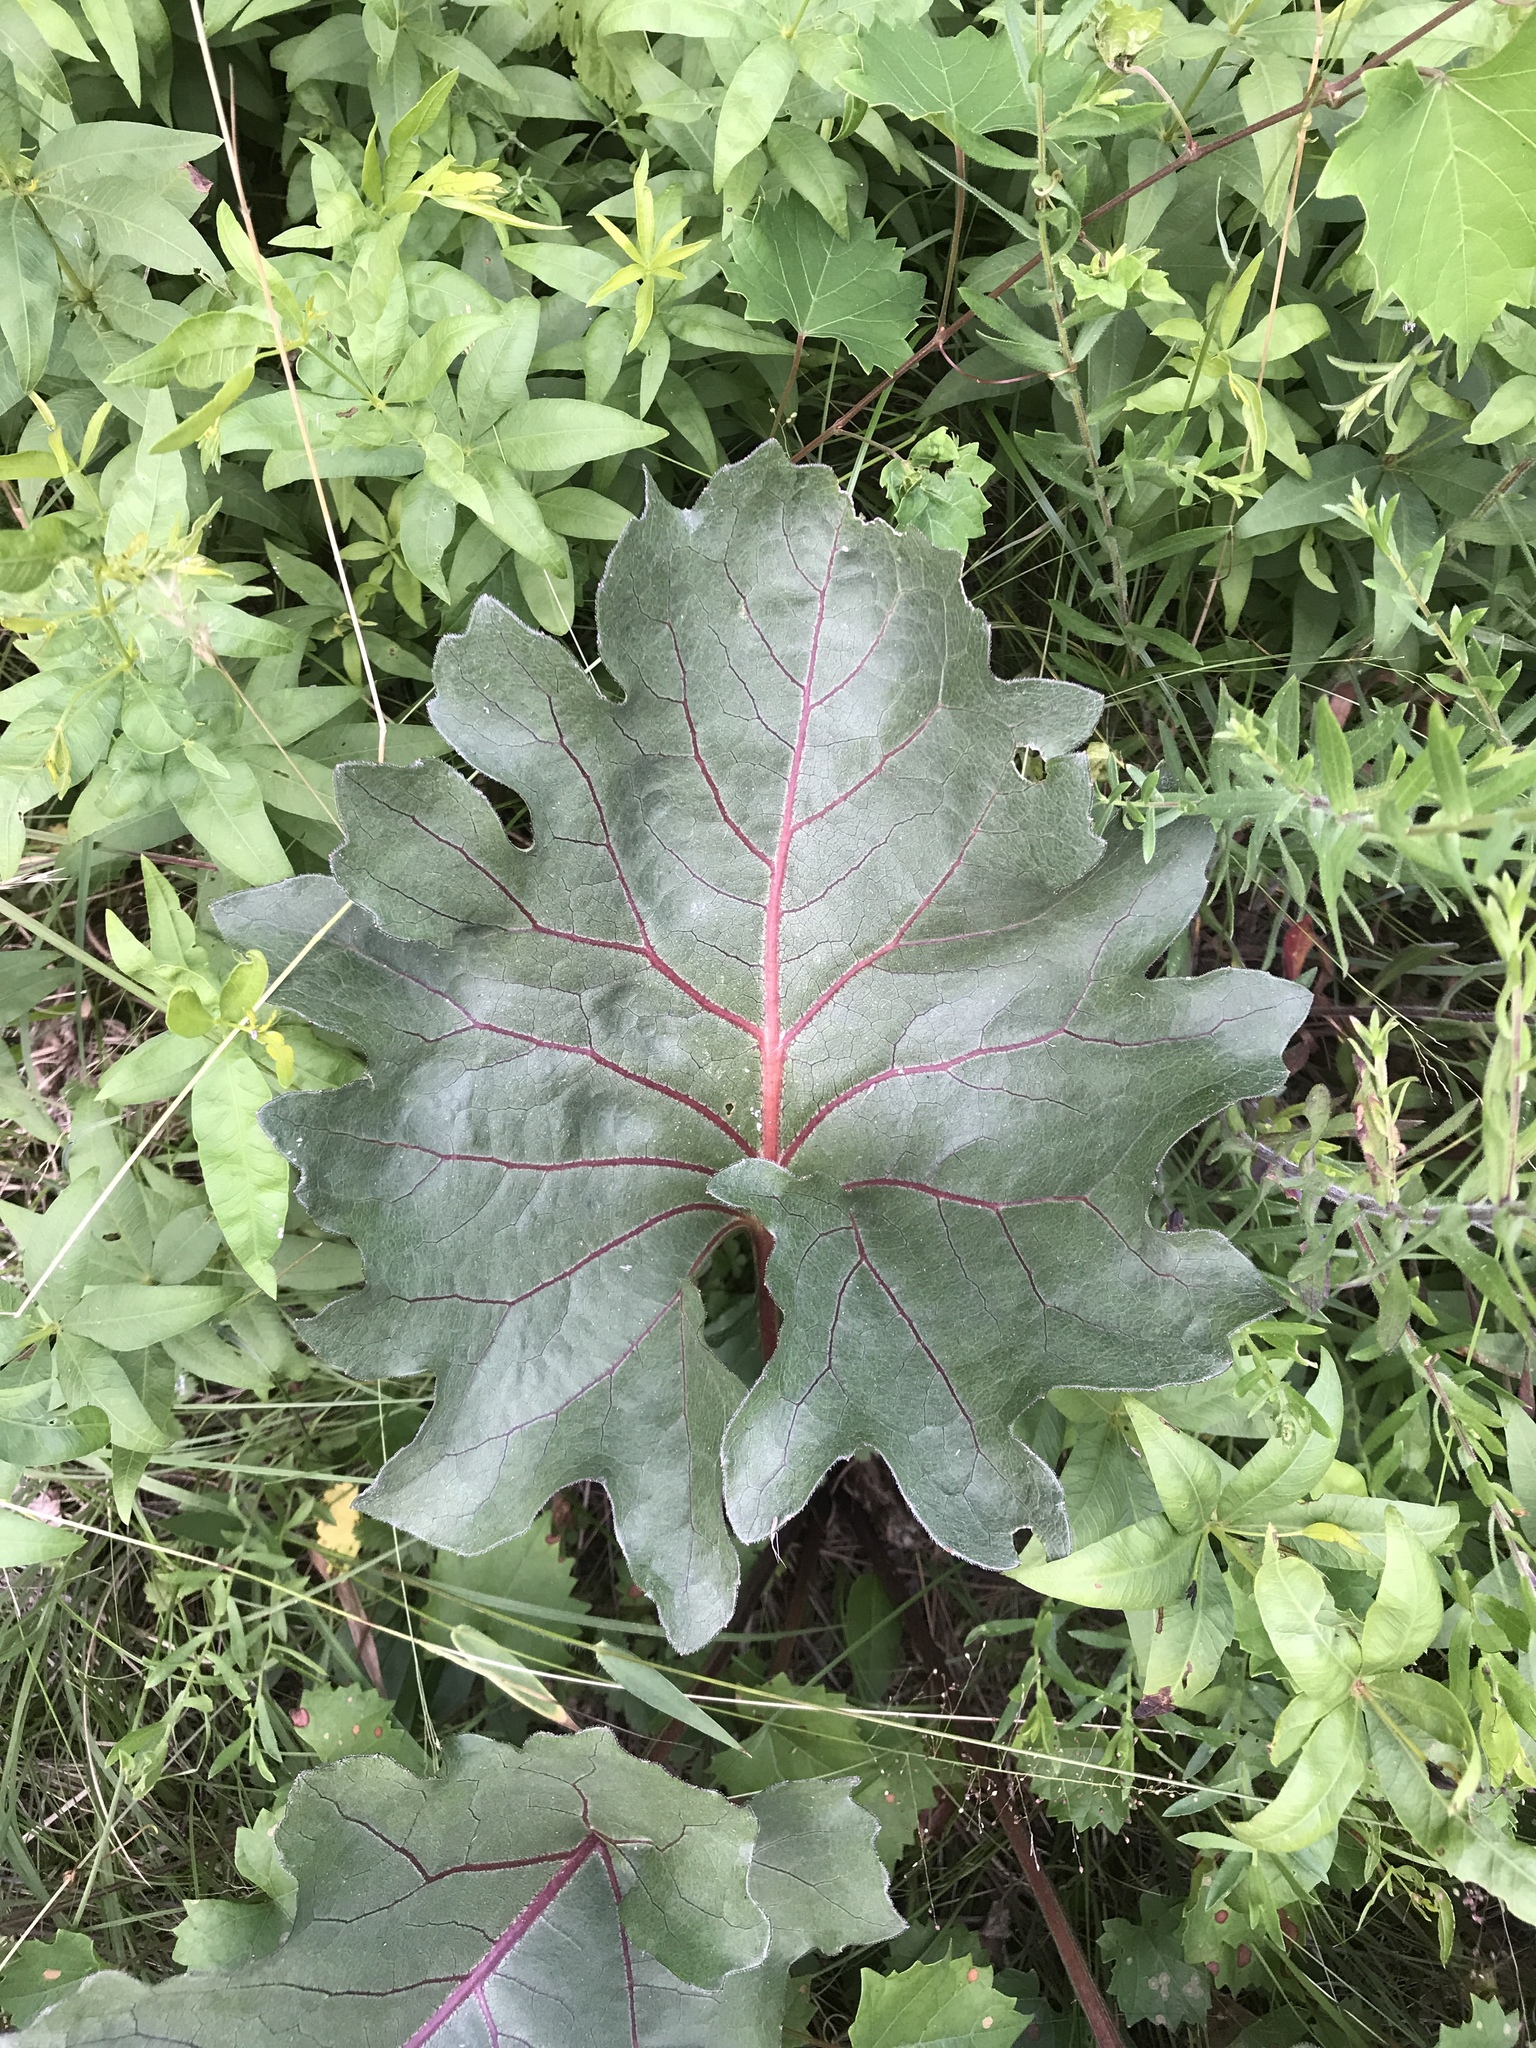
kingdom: Plantae
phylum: Tracheophyta
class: Magnoliopsida
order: Asterales
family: Asteraceae
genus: Silphium
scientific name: Silphium compositum
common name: Lesser basal-leaf rosinweed
